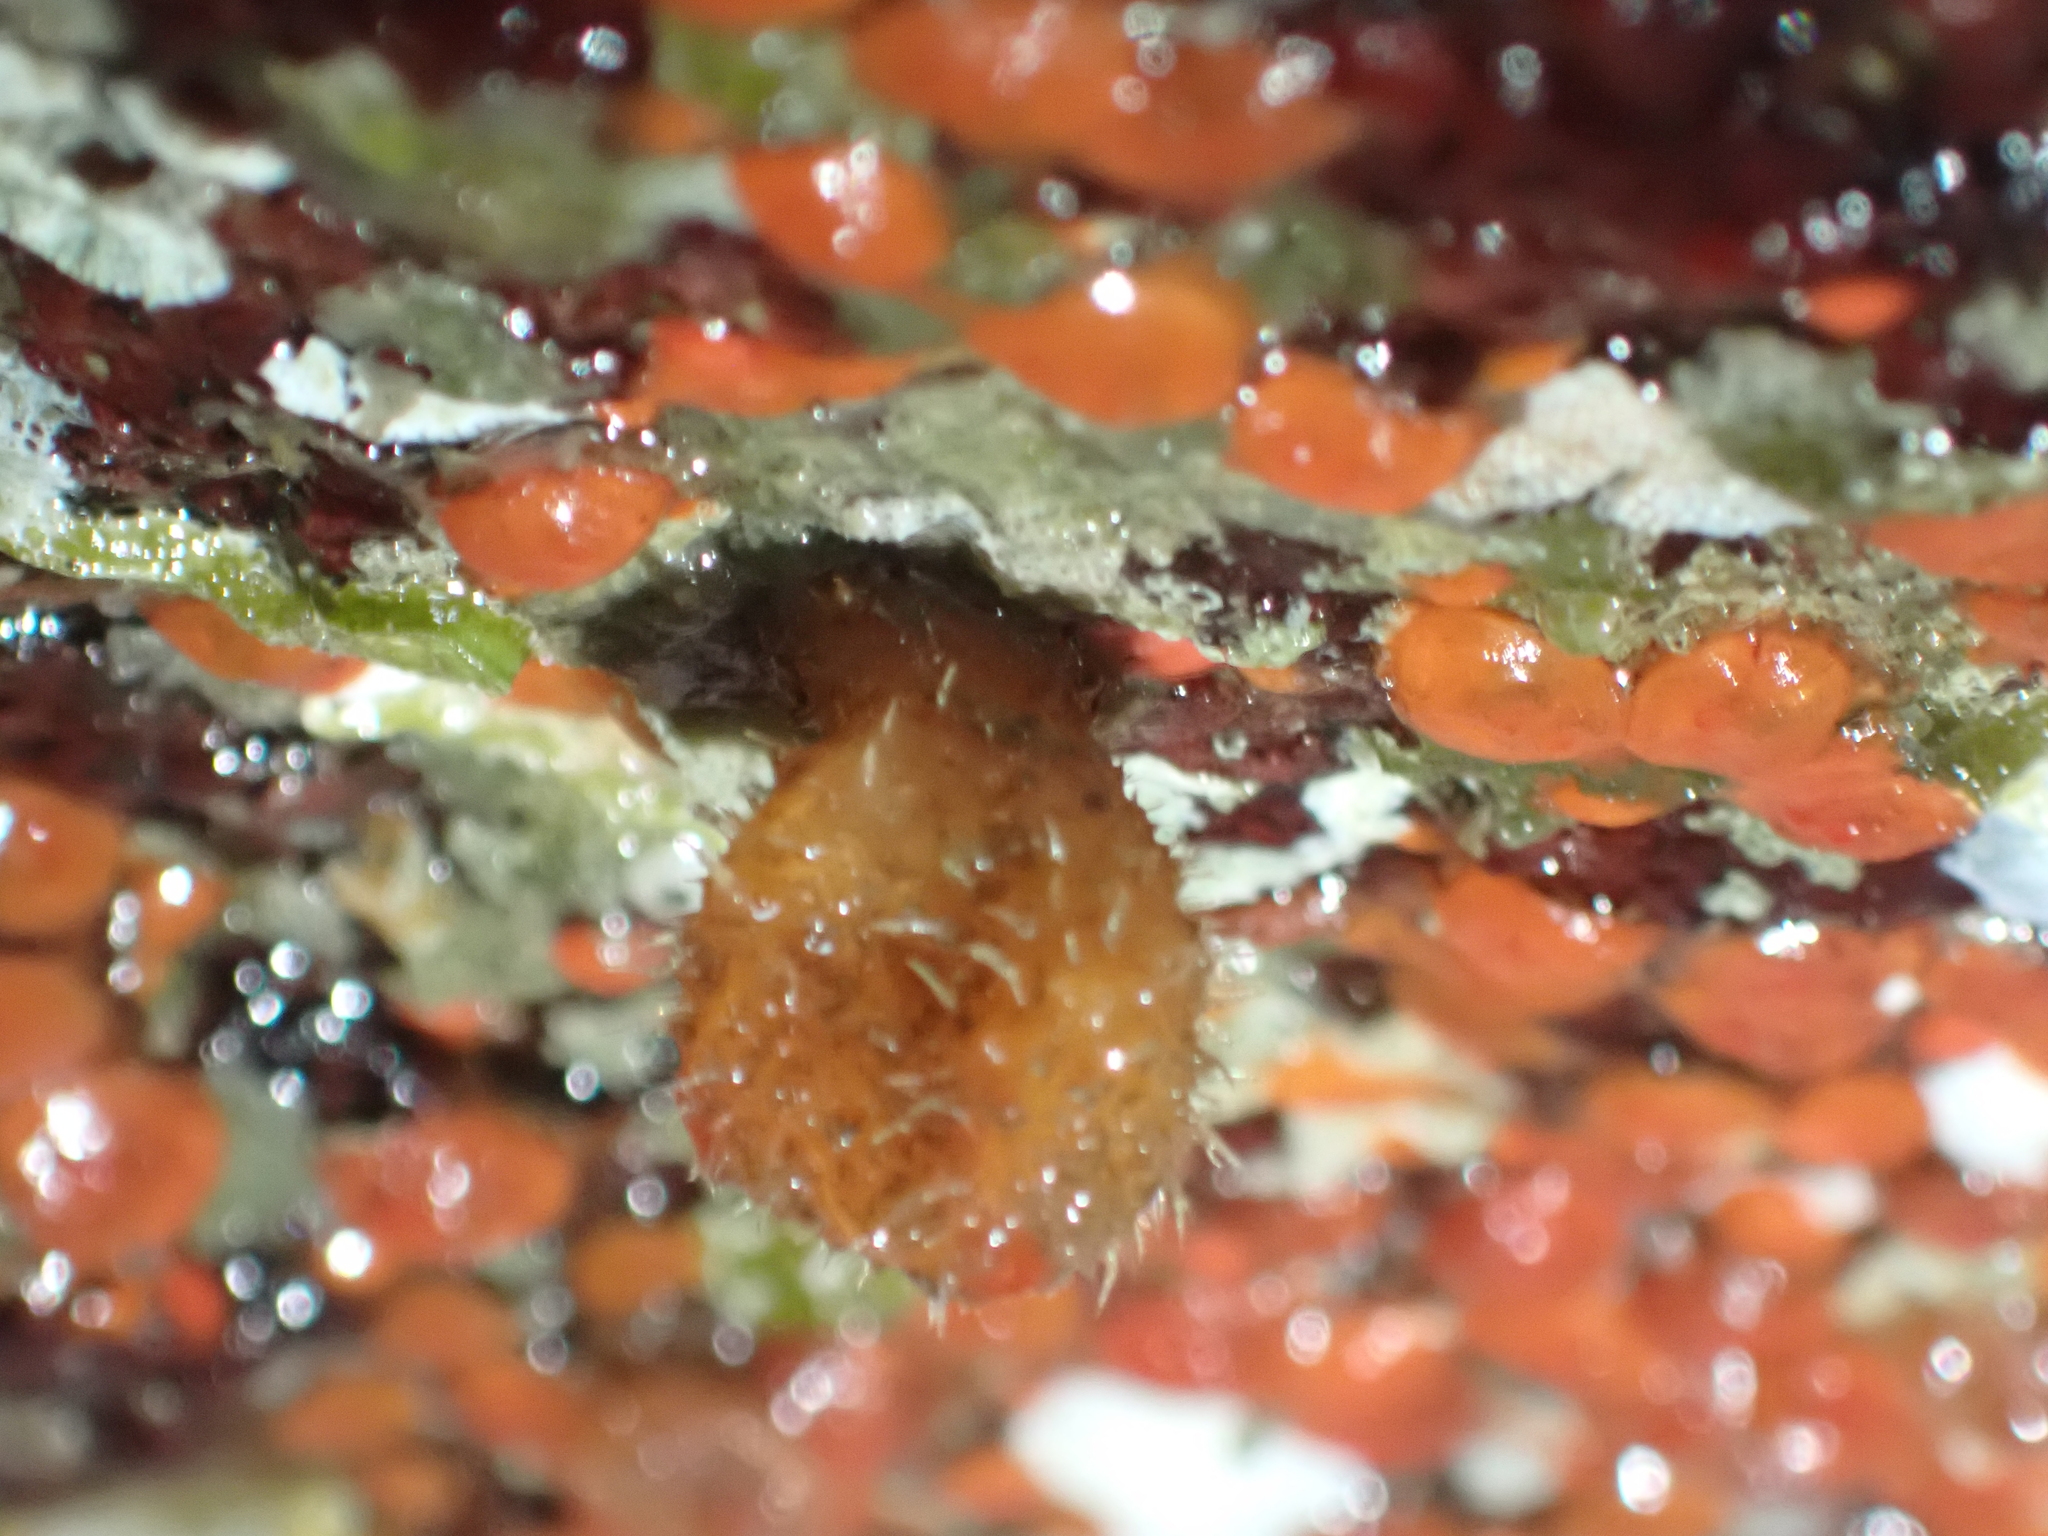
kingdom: Animalia
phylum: Chordata
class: Ascidiacea
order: Stolidobranchia
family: Styelidae
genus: Metandrocarpa
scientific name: Metandrocarpa taylori
